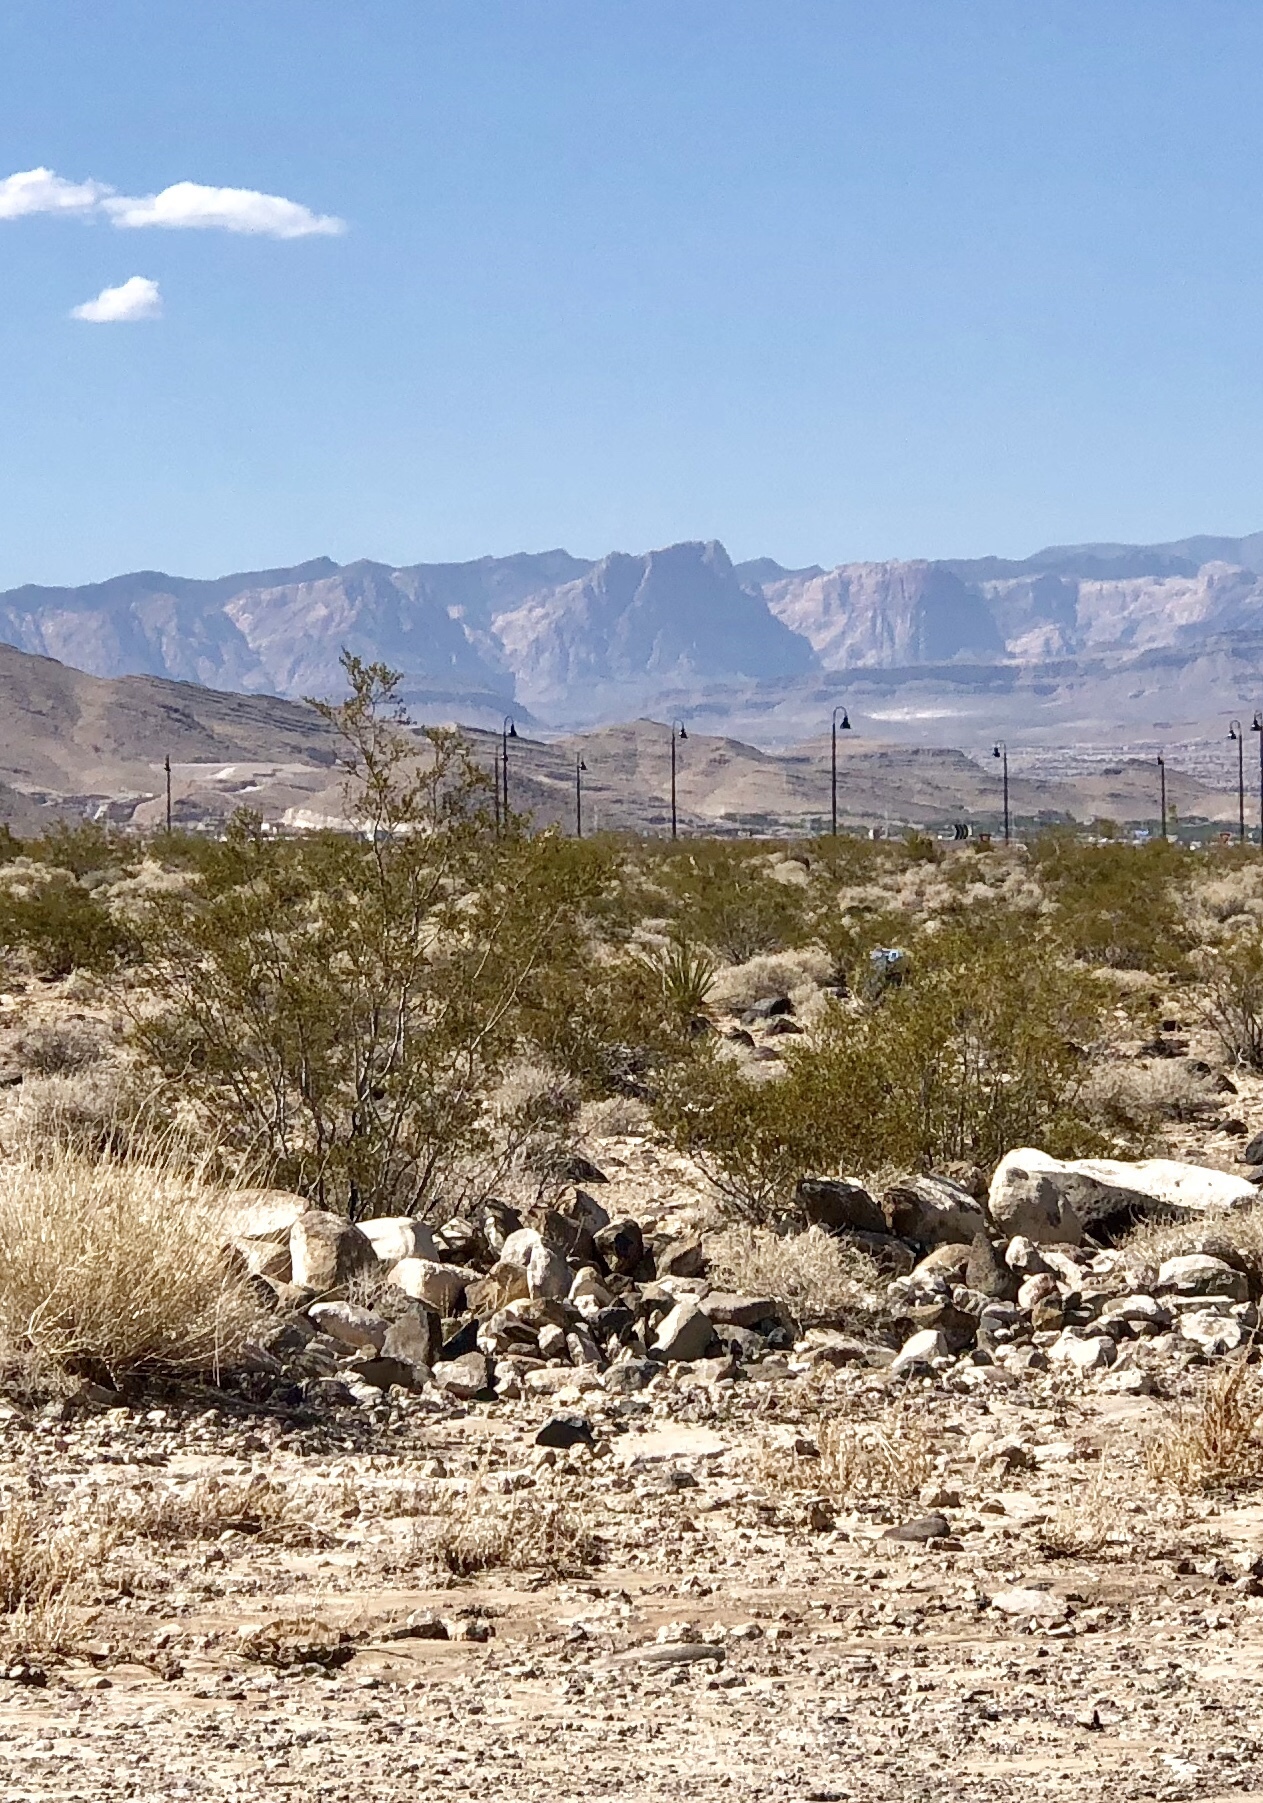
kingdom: Plantae
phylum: Tracheophyta
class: Magnoliopsida
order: Zygophyllales
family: Zygophyllaceae
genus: Larrea
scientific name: Larrea tridentata
